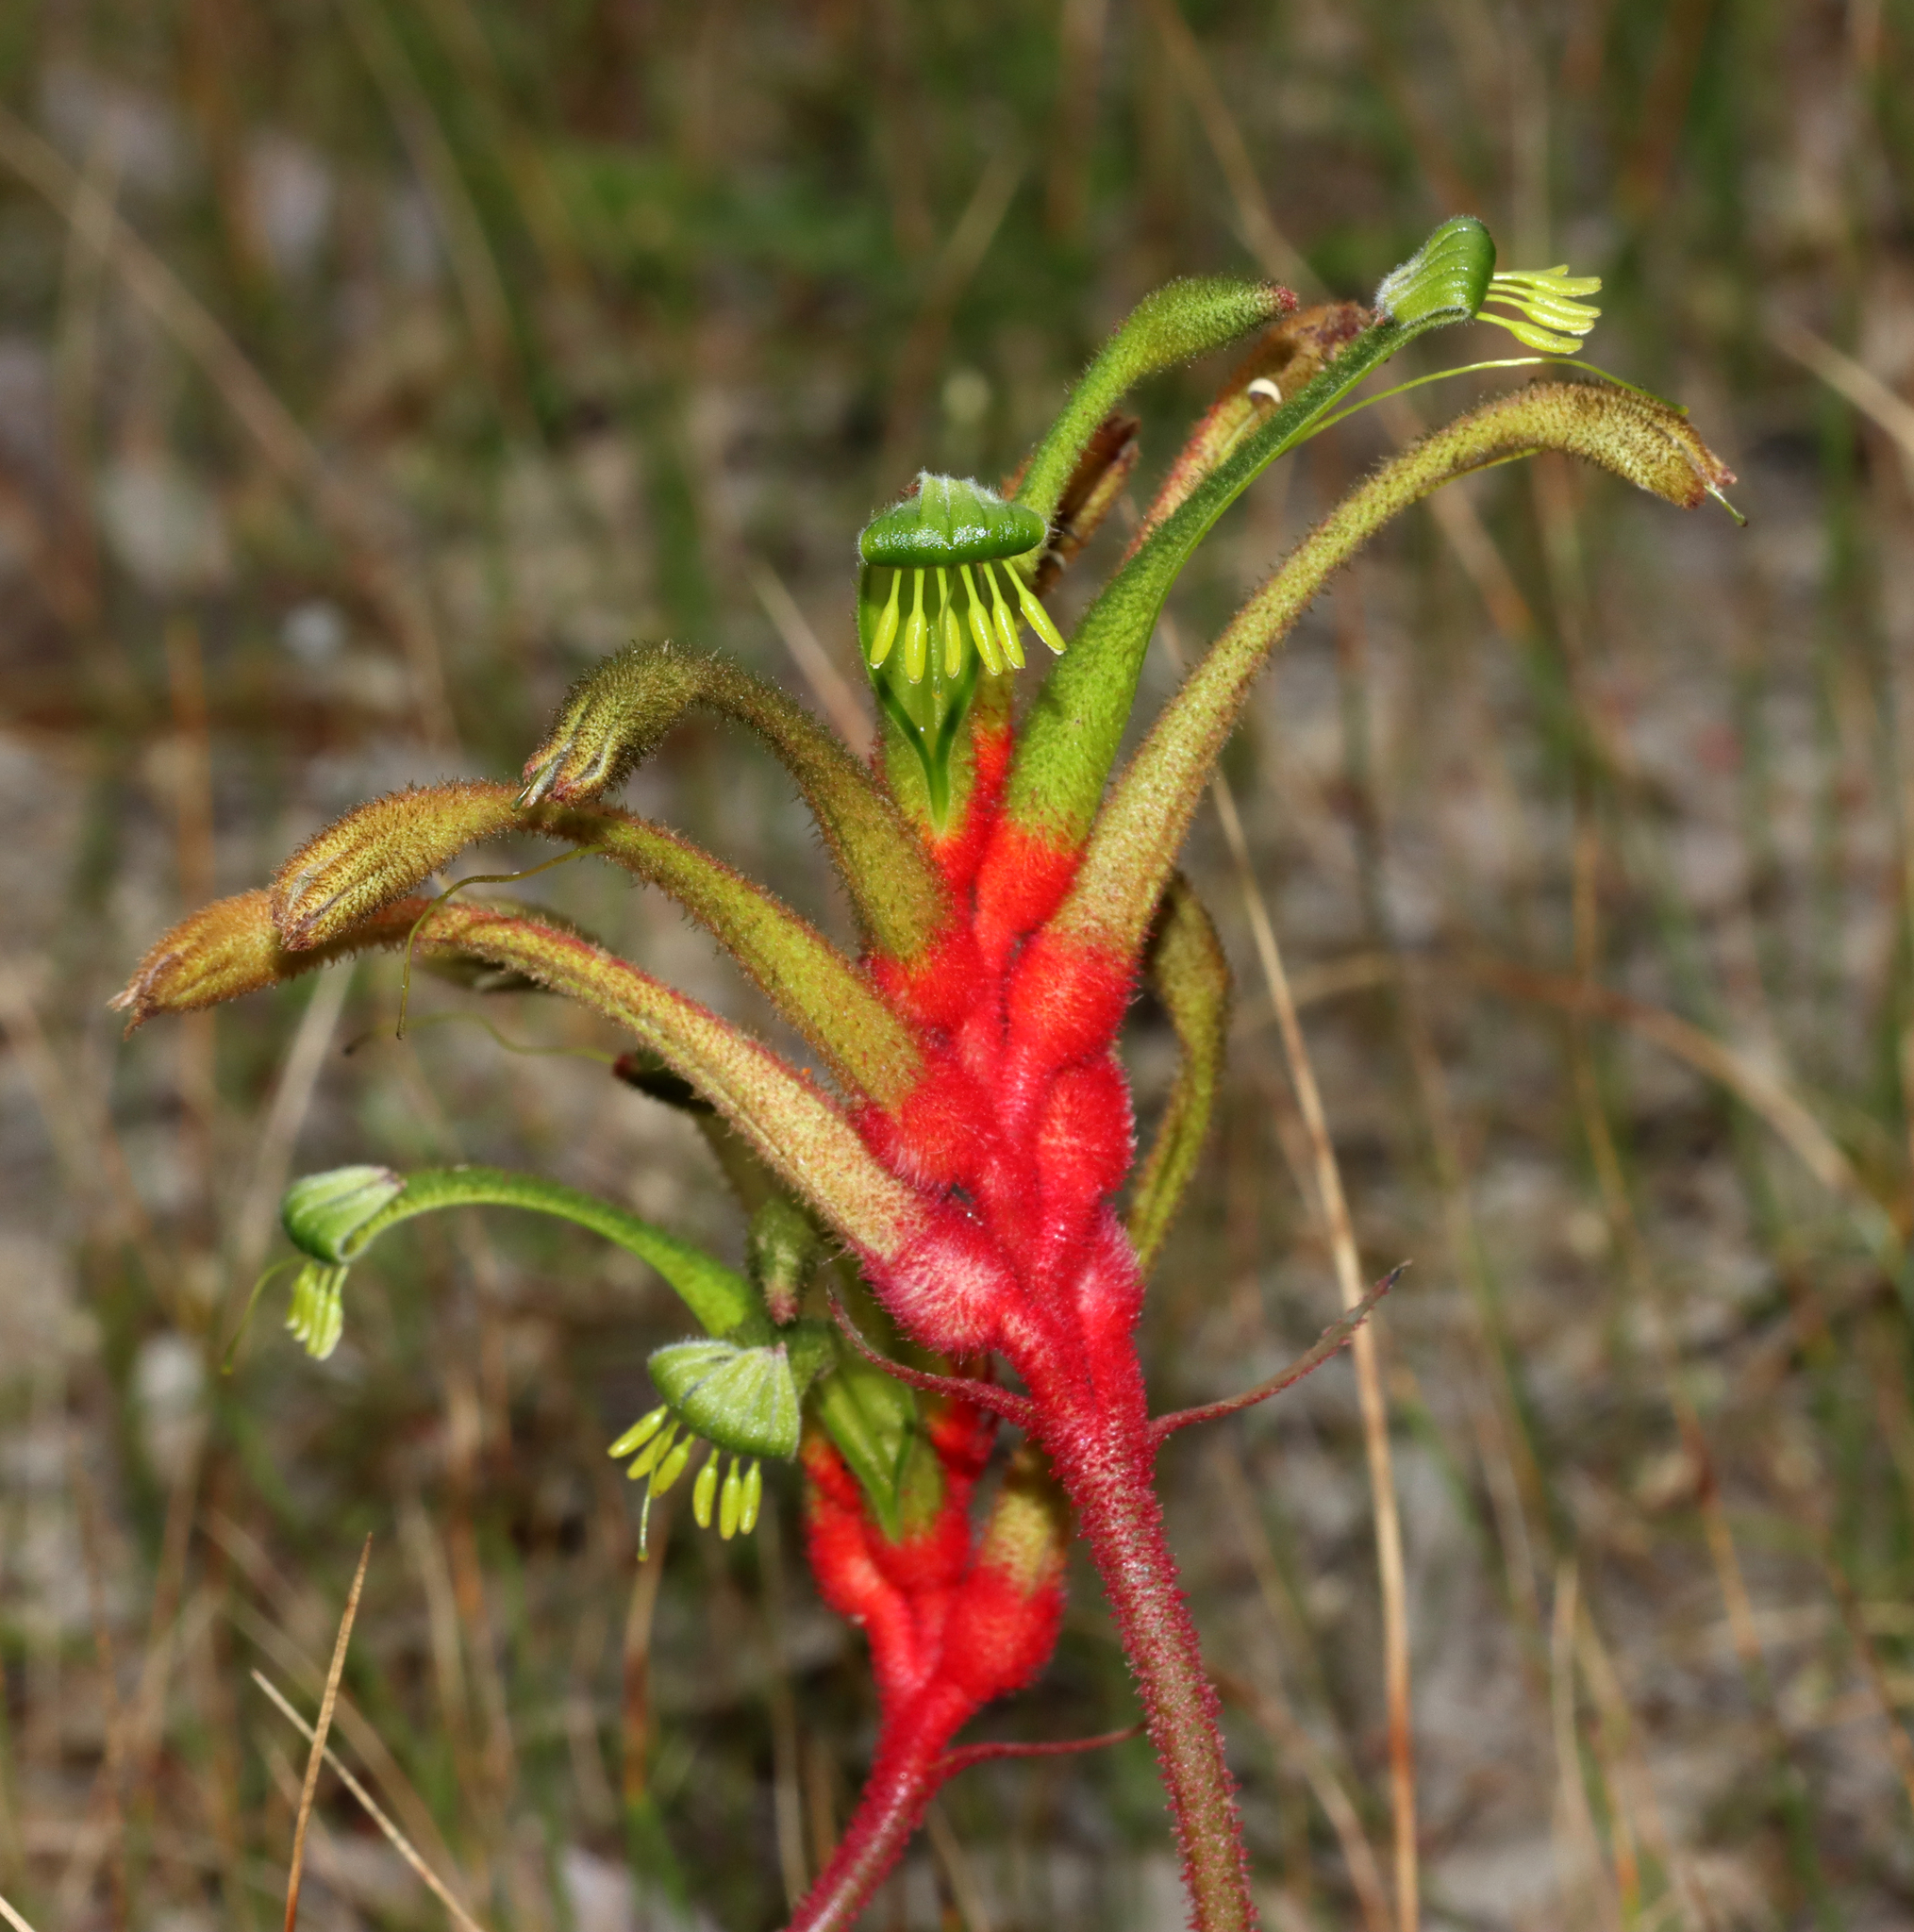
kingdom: Plantae
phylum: Tracheophyta
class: Liliopsida
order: Commelinales
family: Haemodoraceae
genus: Anigozanthos
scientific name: Anigozanthos manglesii
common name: Mangles's kangaroo-paw
